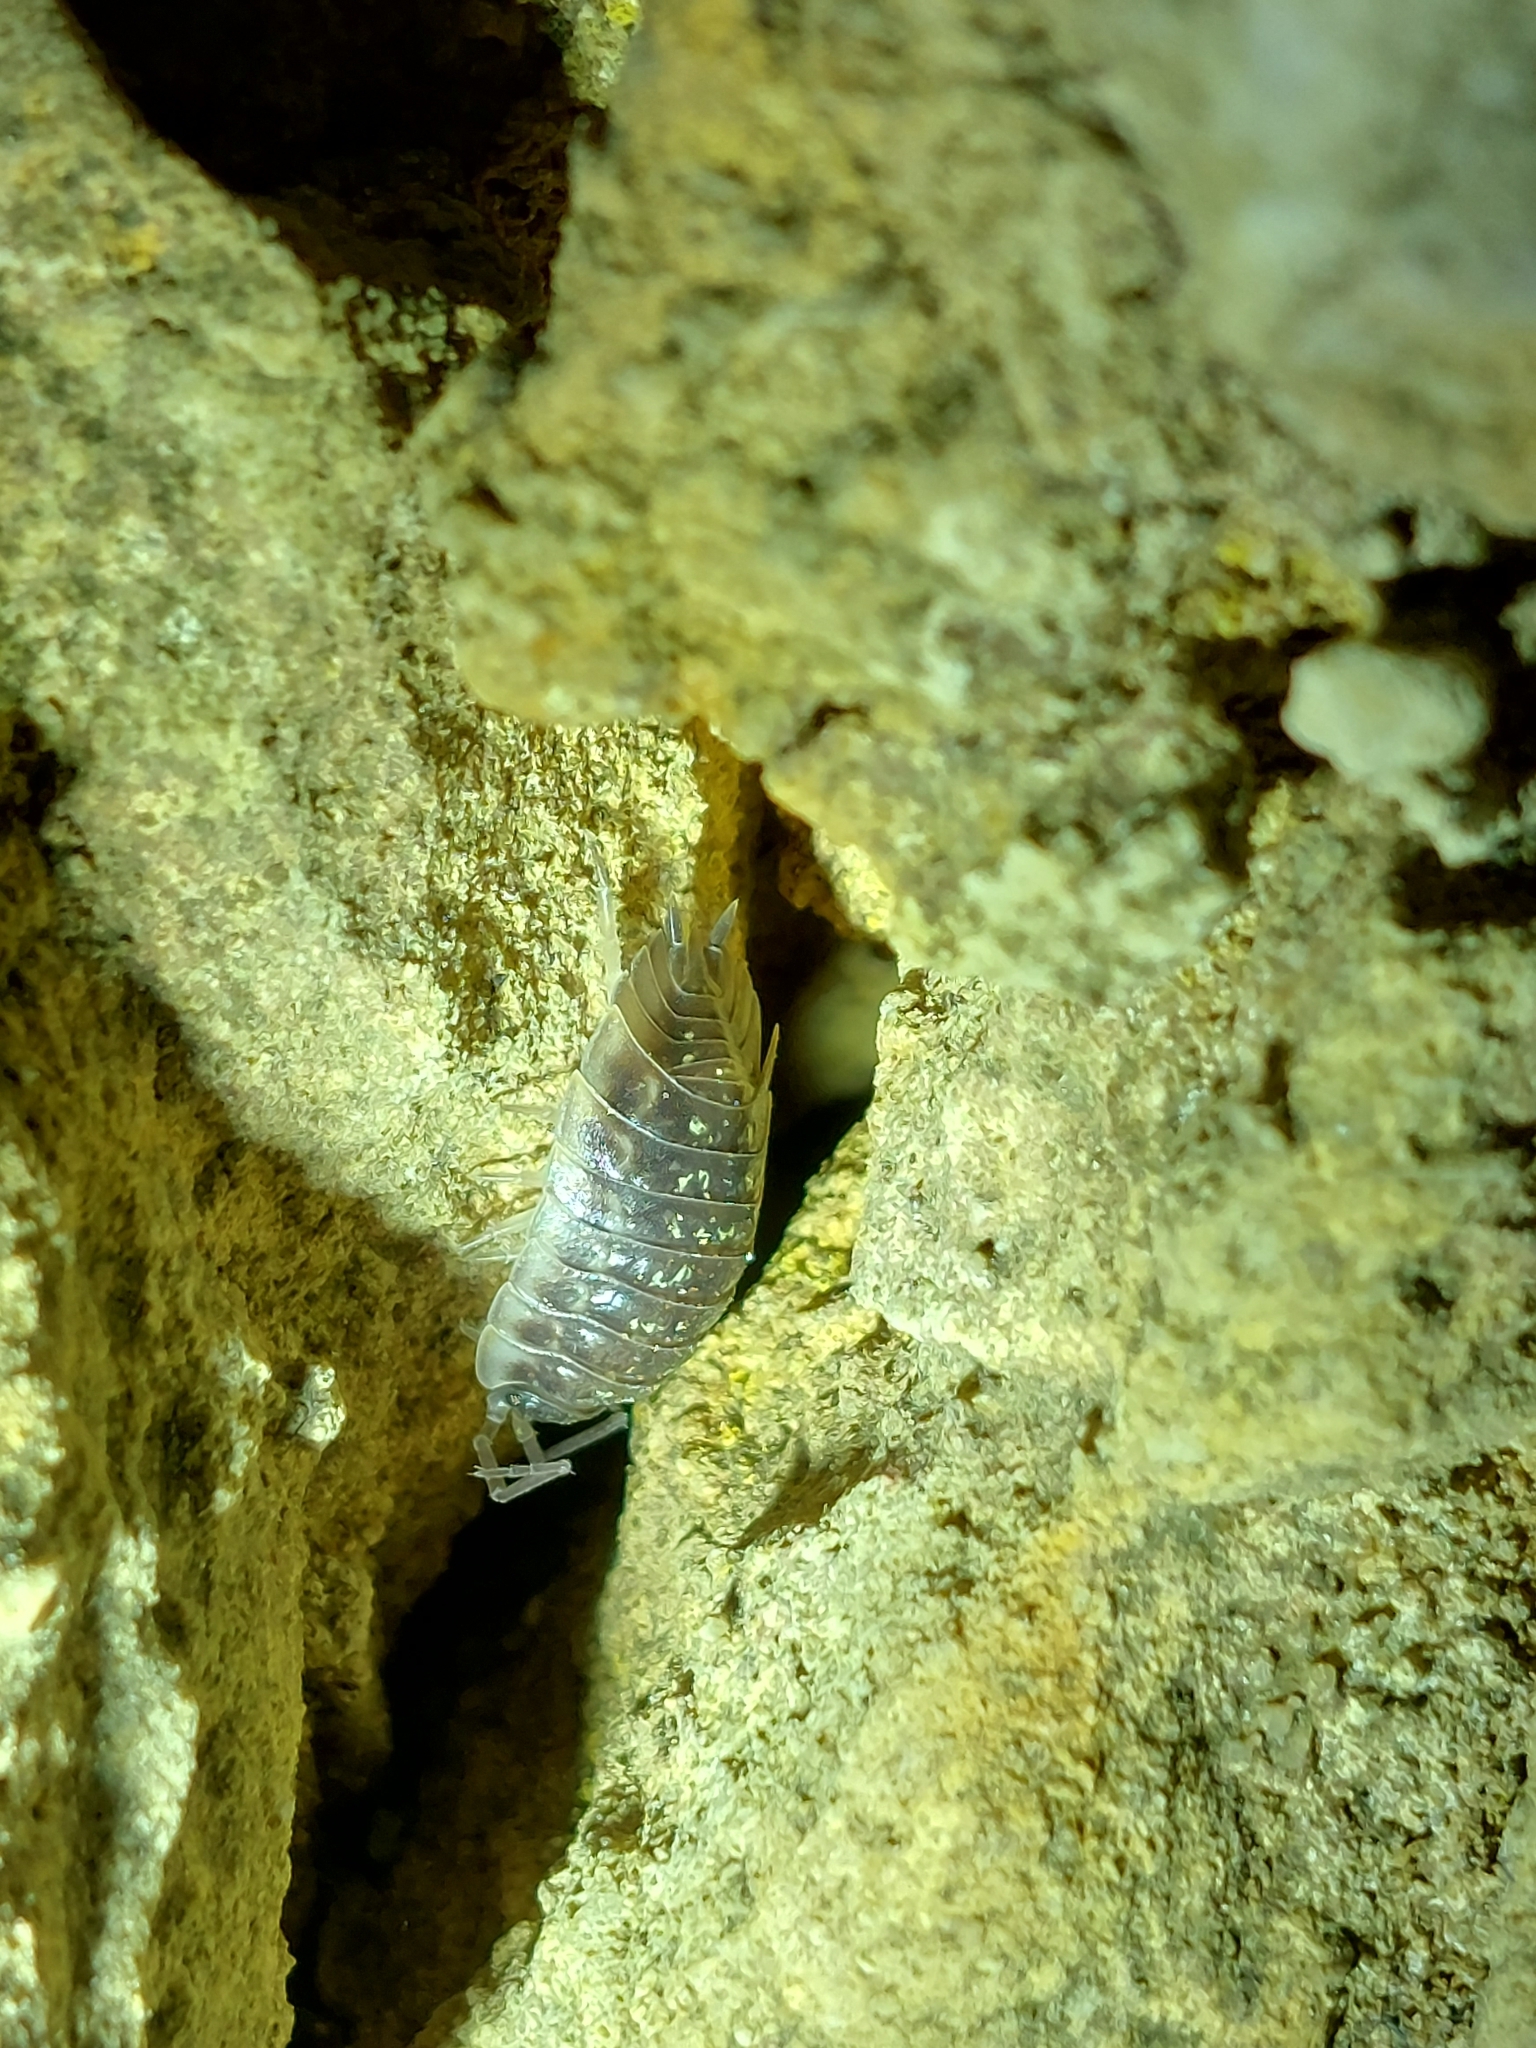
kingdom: Animalia
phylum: Arthropoda
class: Malacostraca
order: Isopoda
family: Oniscidae
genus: Oniscus
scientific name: Oniscus asellus
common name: Common shiny woodlouse
